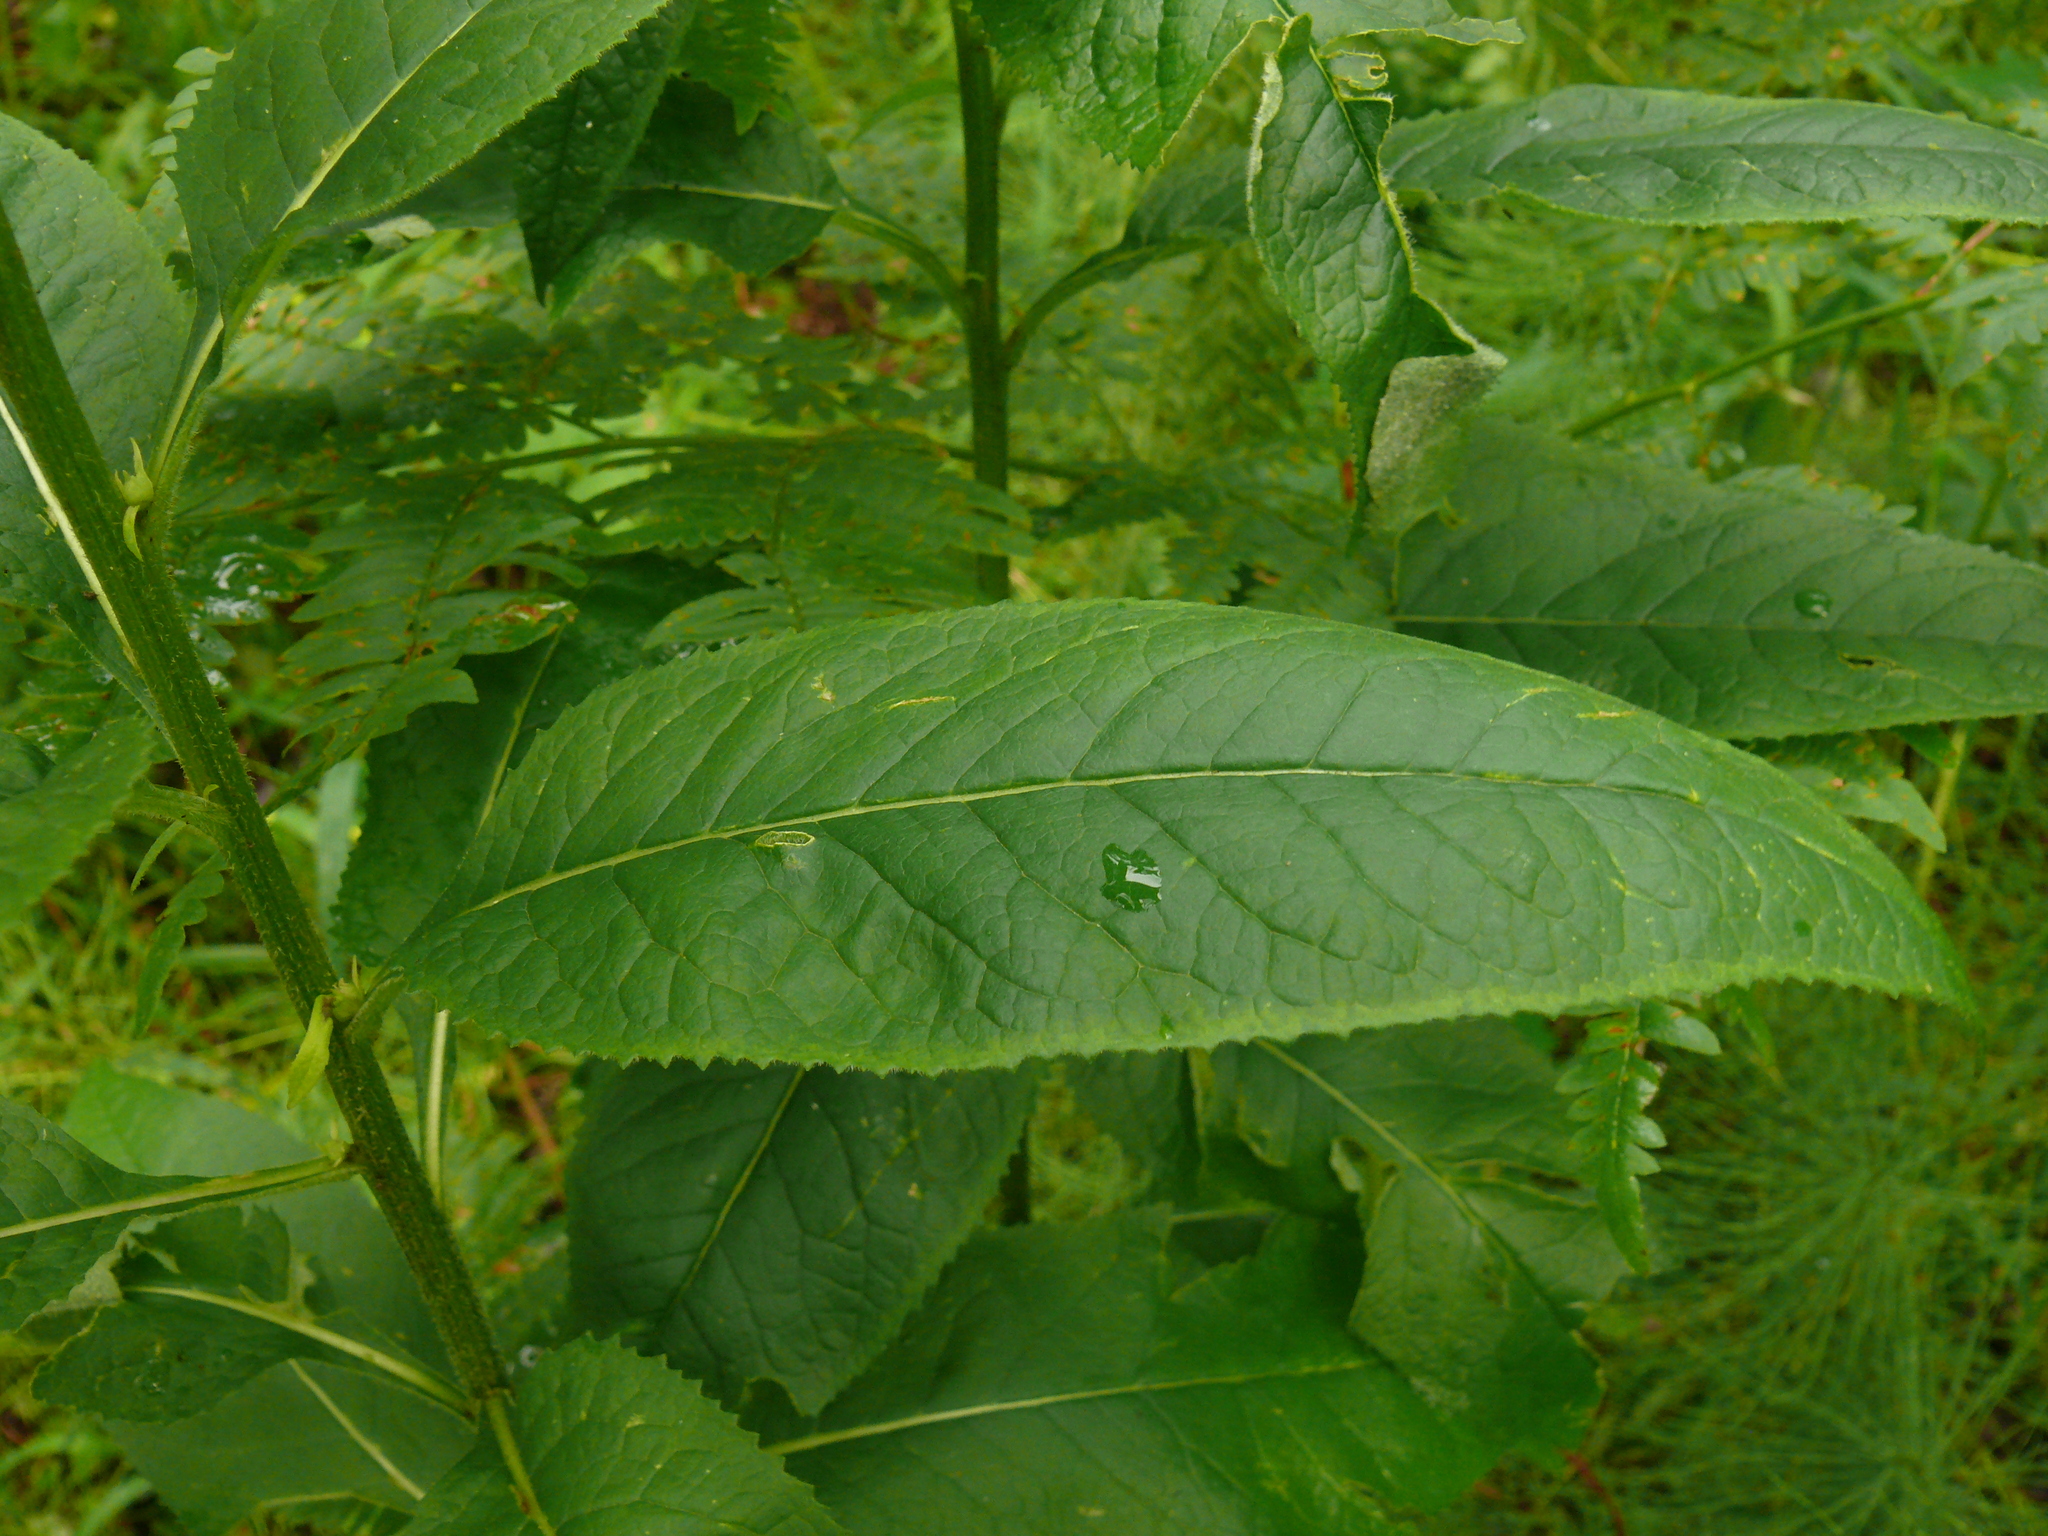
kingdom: Plantae
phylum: Tracheophyta
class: Magnoliopsida
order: Asterales
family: Asteraceae
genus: Senecio
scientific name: Senecio nemorensis
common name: Alpine ragwort
